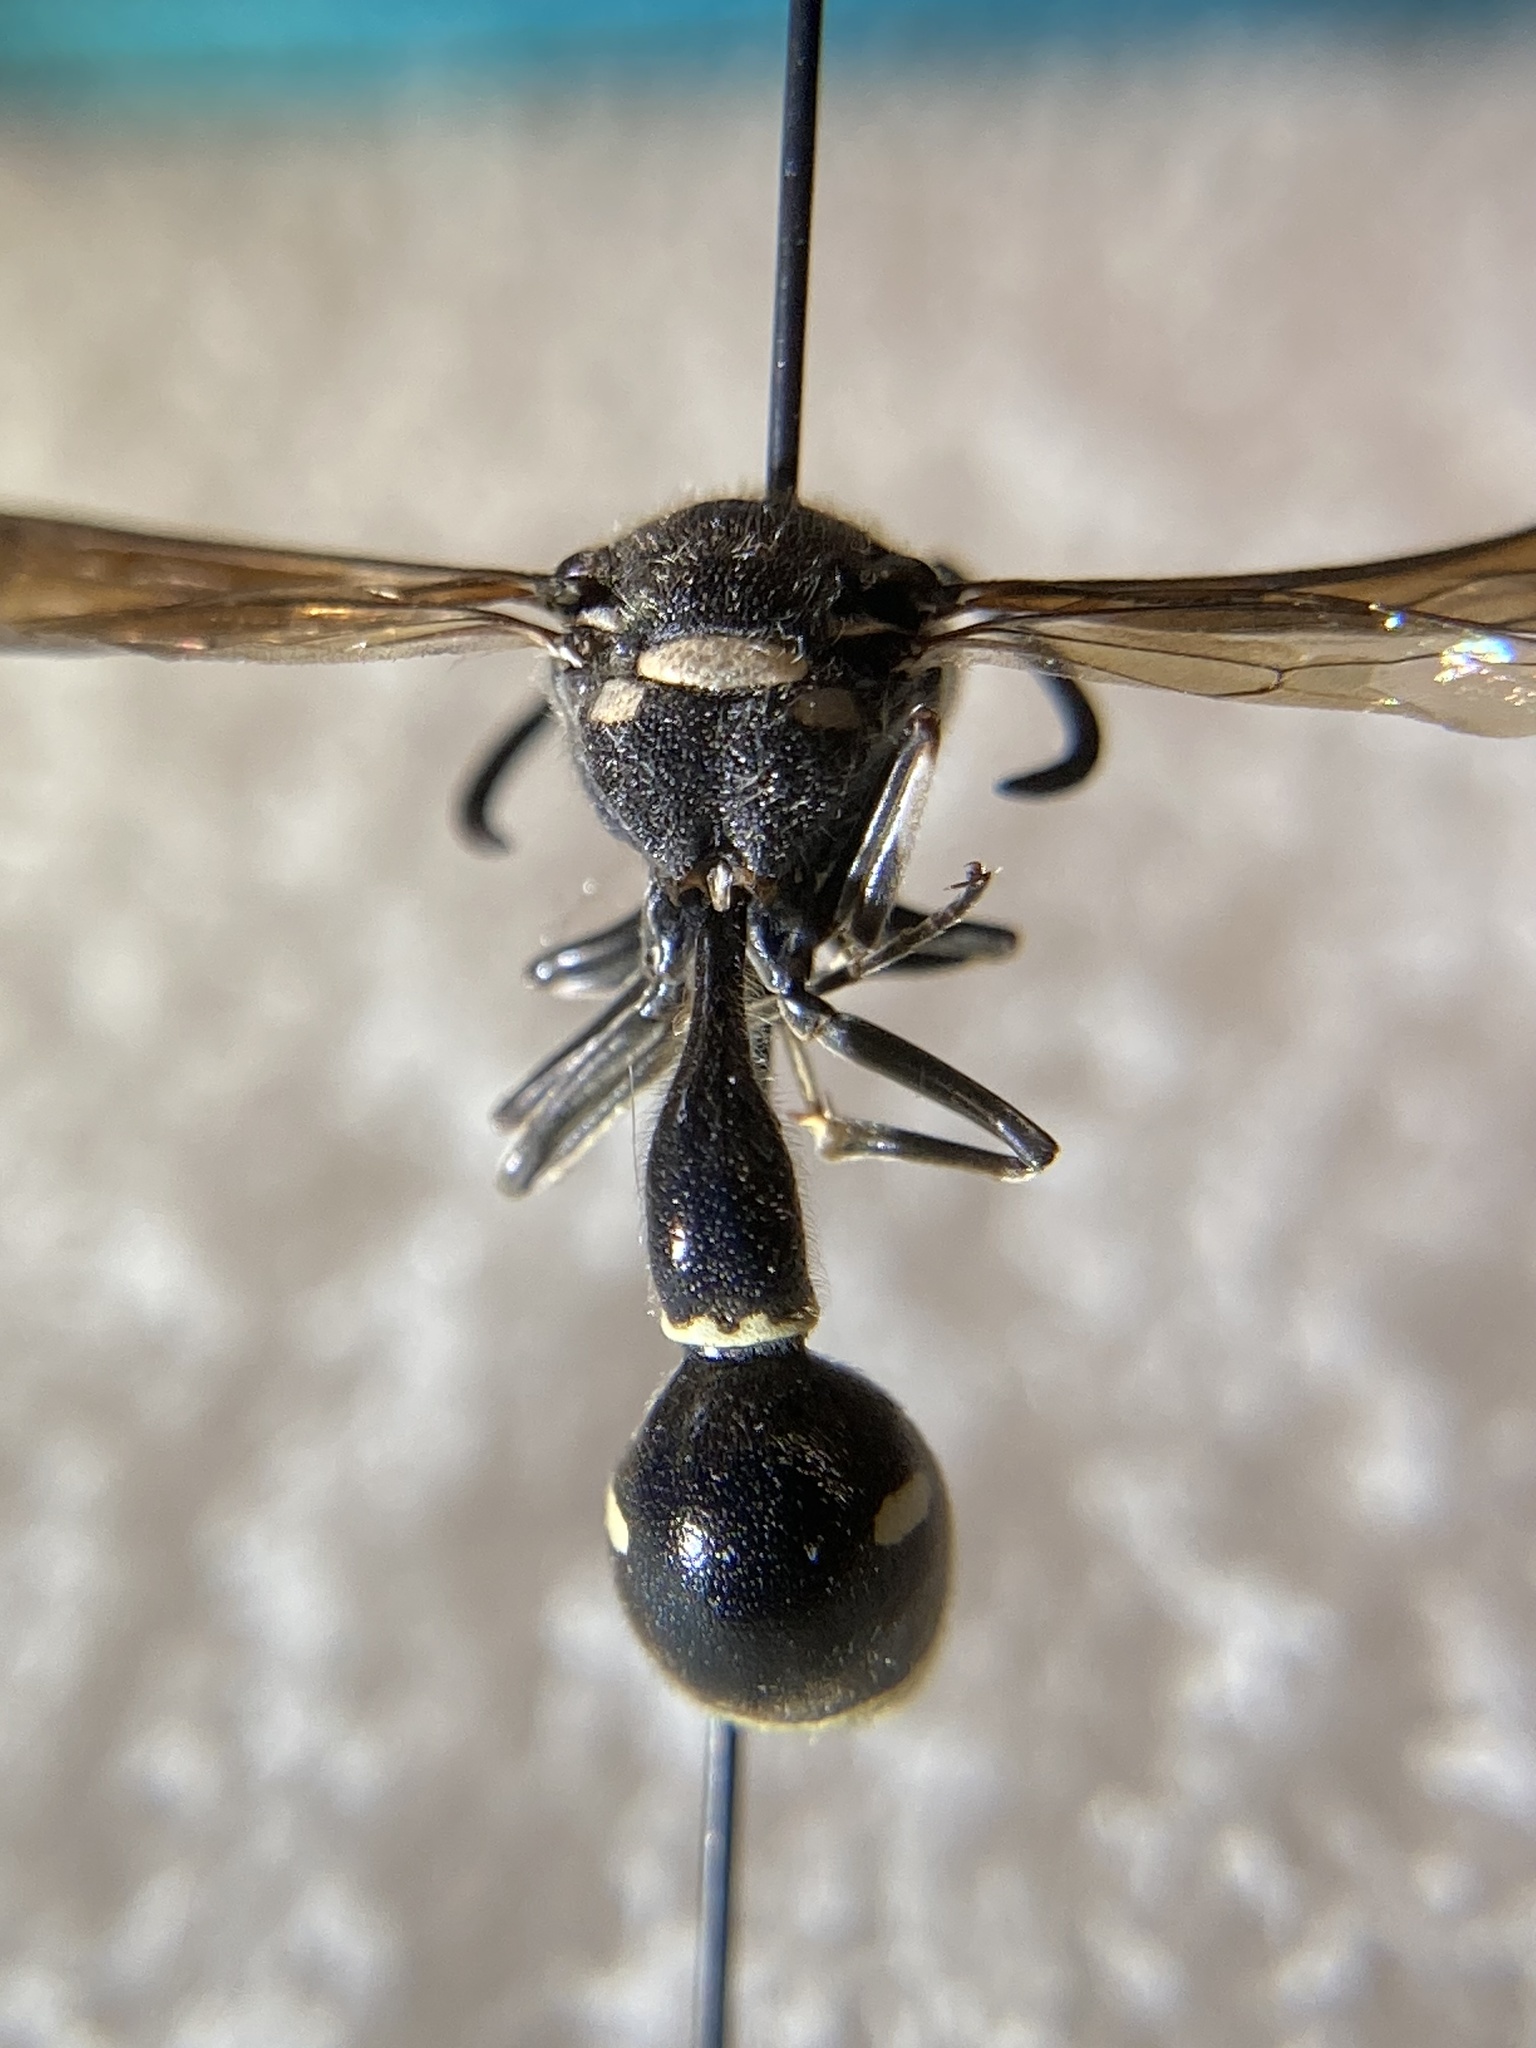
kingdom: Animalia
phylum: Arthropoda
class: Insecta
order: Hymenoptera
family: Vespidae
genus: Eumenes
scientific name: Eumenes fraternus
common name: Fraternal potter wasp
